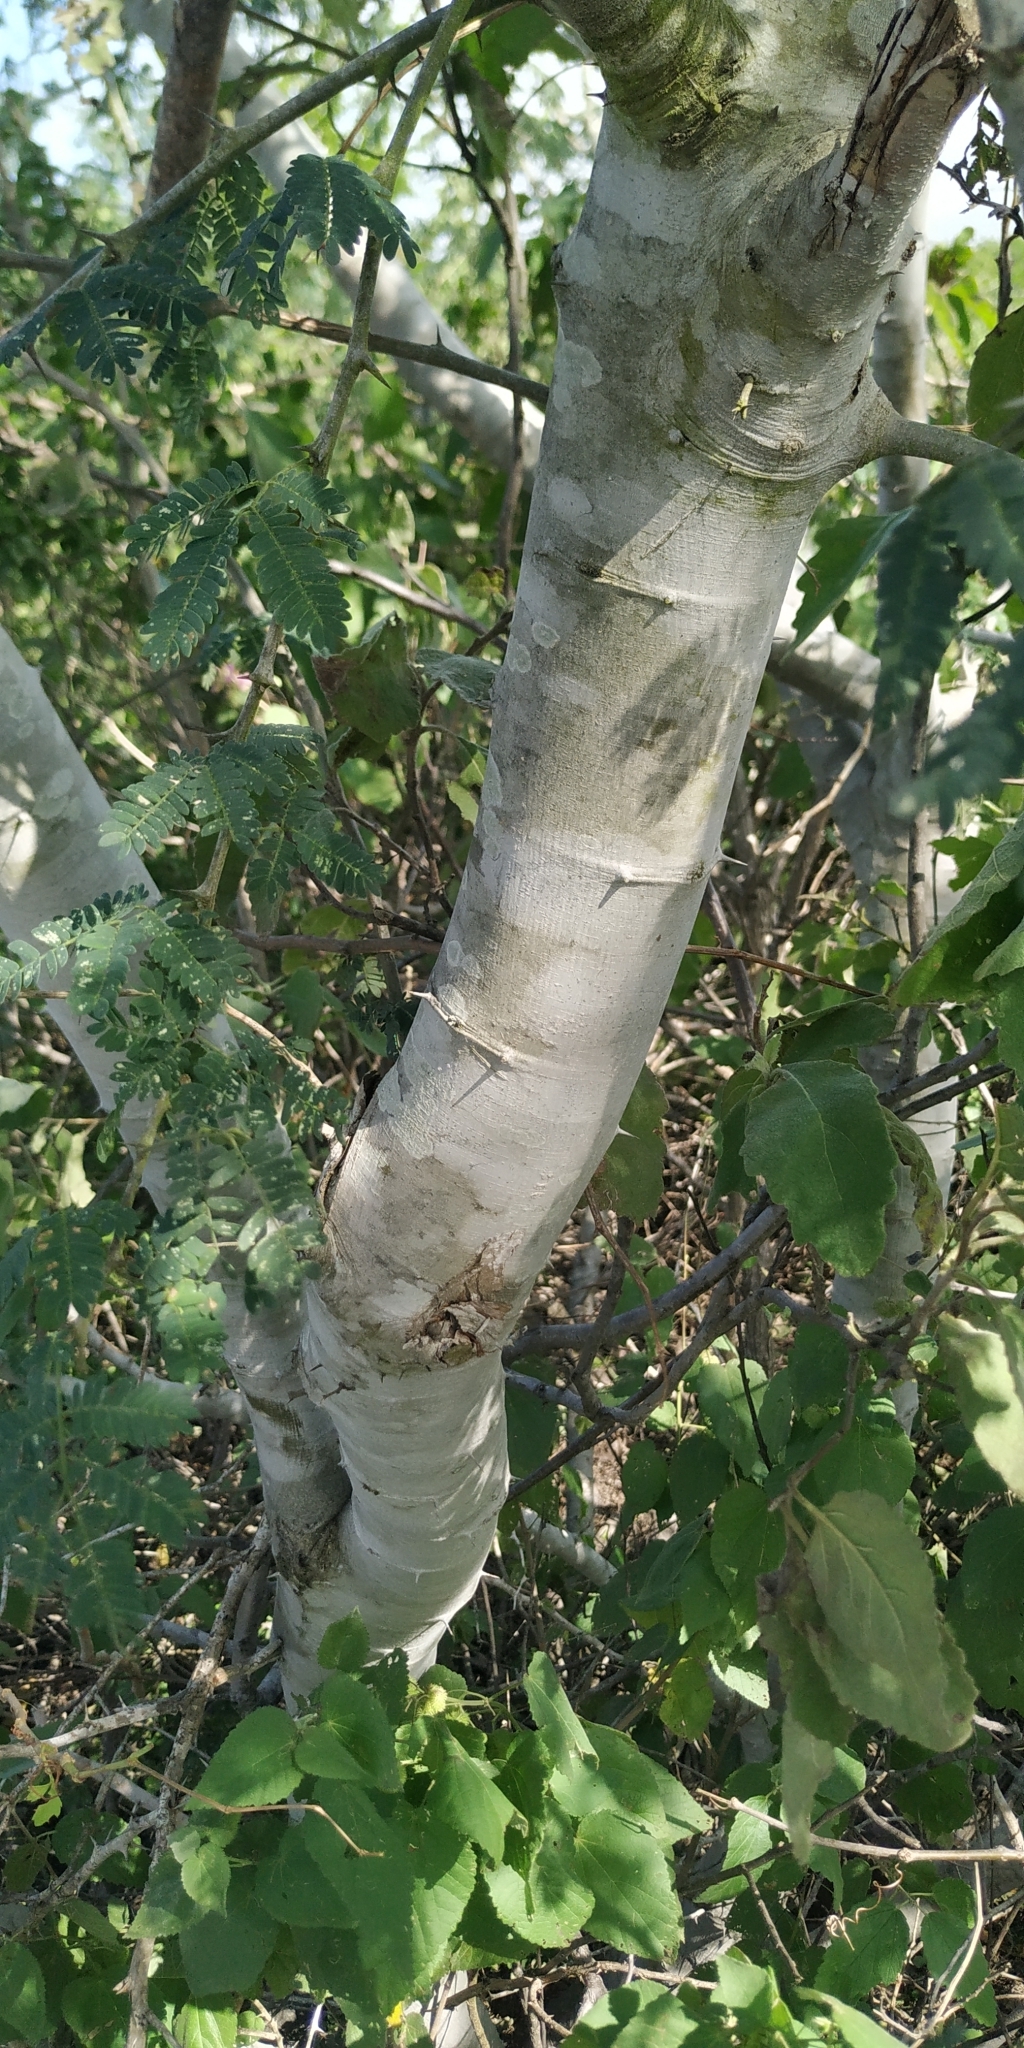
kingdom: Plantae
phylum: Tracheophyta
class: Magnoliopsida
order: Fabales
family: Fabaceae
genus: Havardia
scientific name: Havardia pallens
